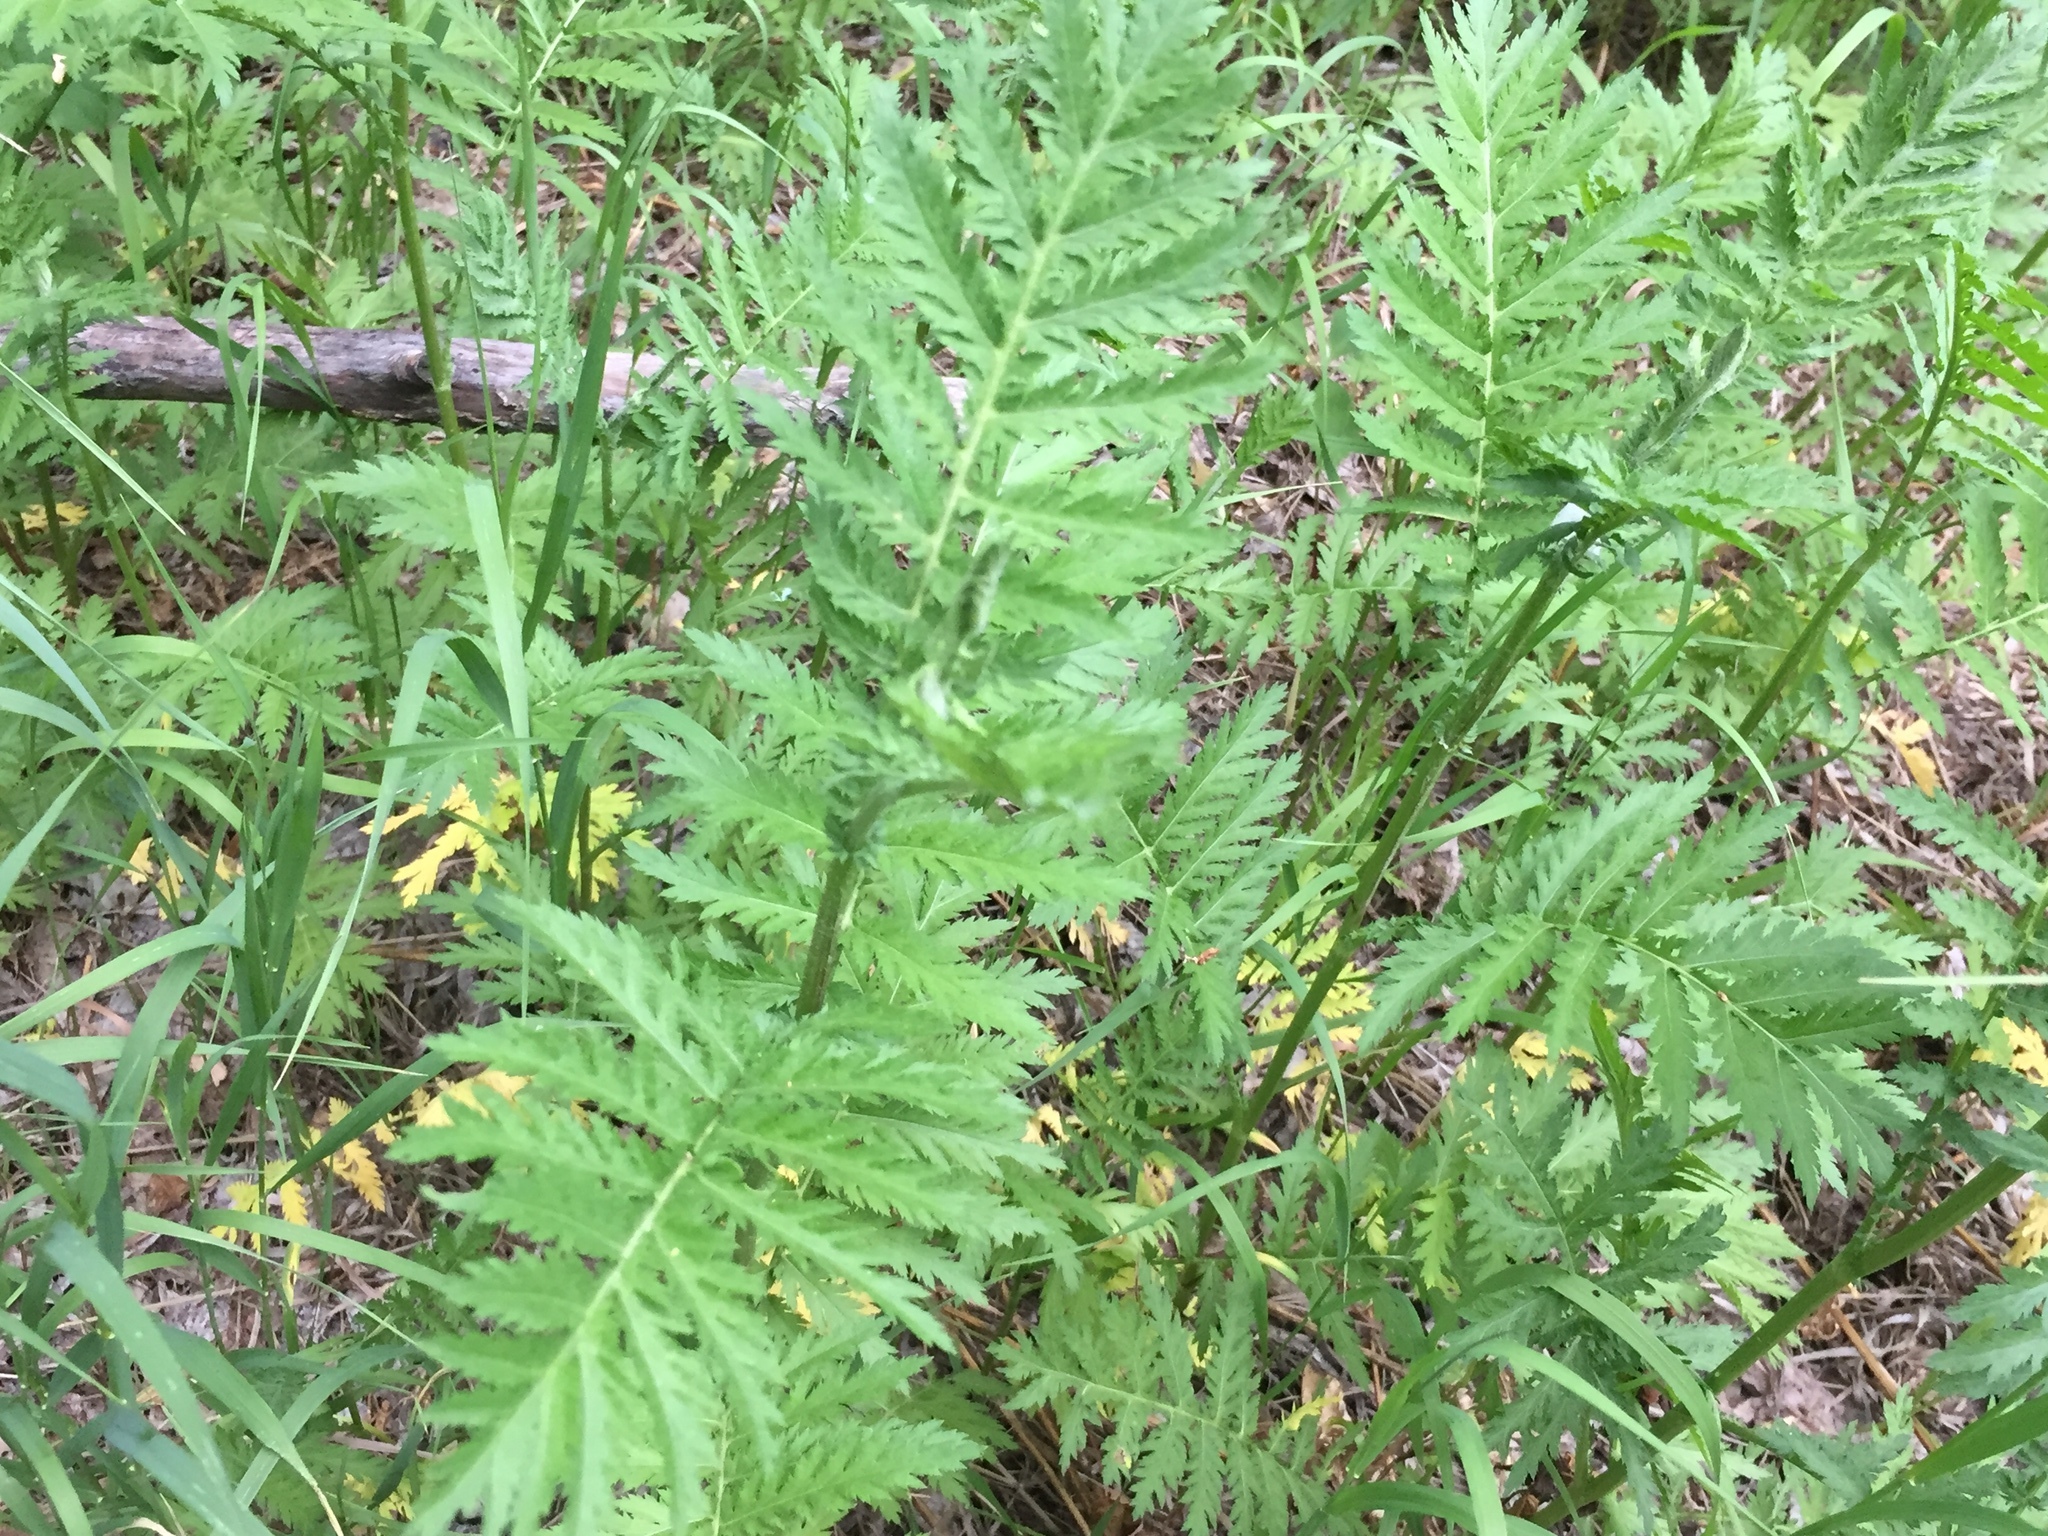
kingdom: Plantae
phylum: Tracheophyta
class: Magnoliopsida
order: Asterales
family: Asteraceae
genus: Tanacetum
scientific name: Tanacetum vulgare
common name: Common tansy
